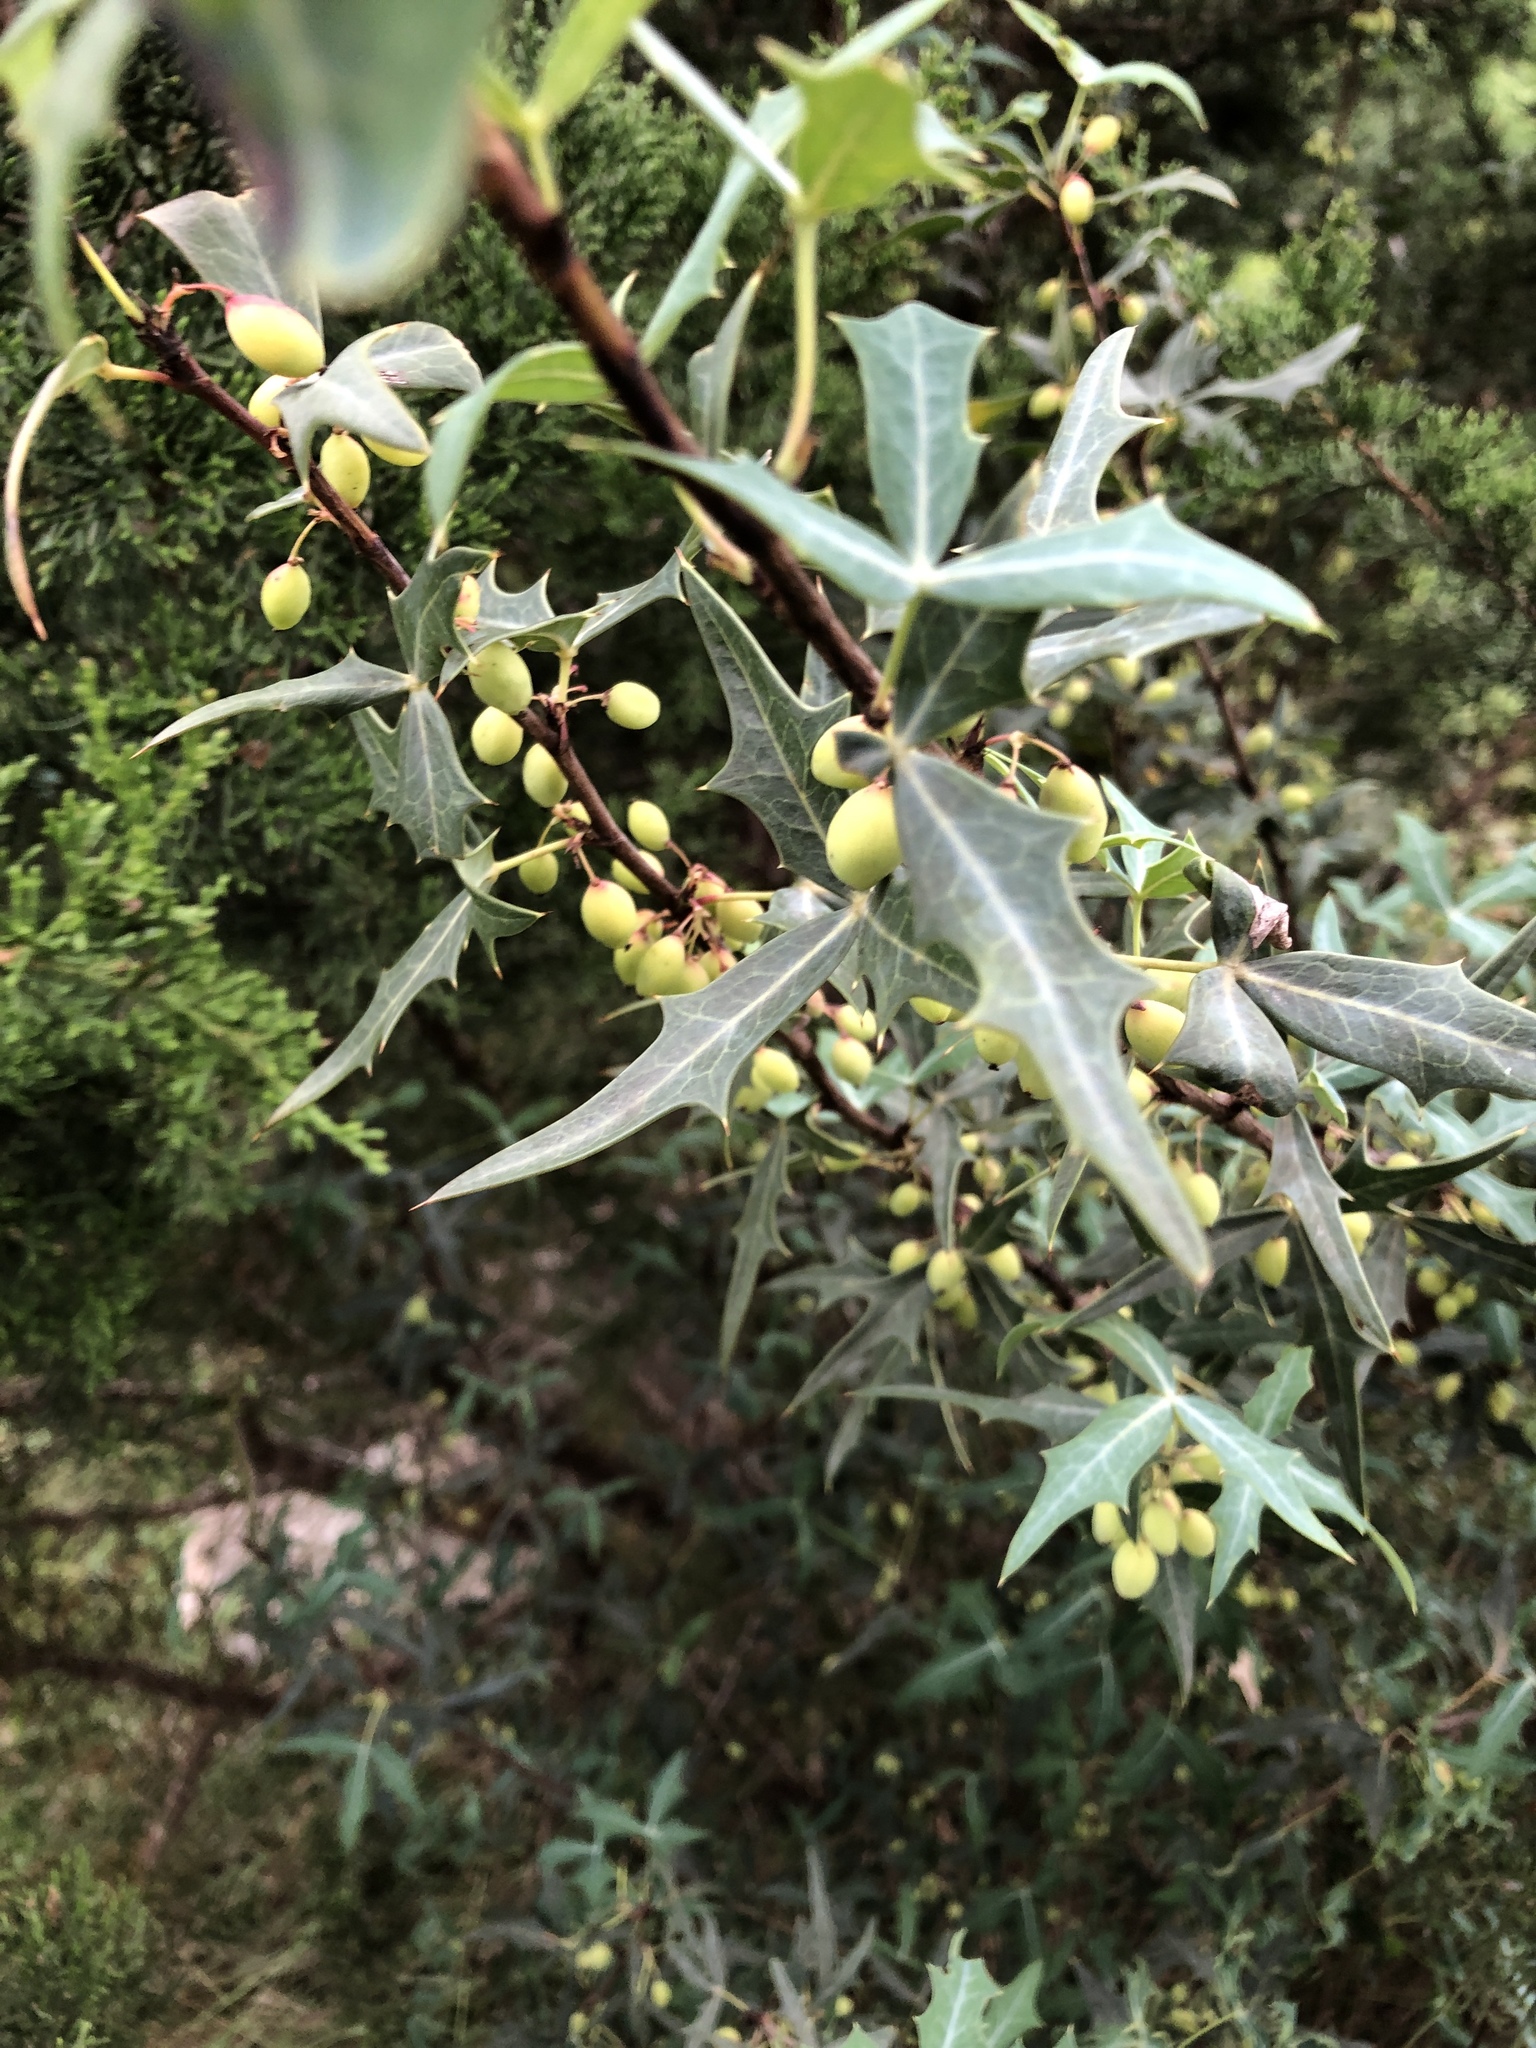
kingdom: Plantae
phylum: Tracheophyta
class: Magnoliopsida
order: Ranunculales
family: Berberidaceae
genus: Alloberberis
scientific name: Alloberberis trifoliolata
